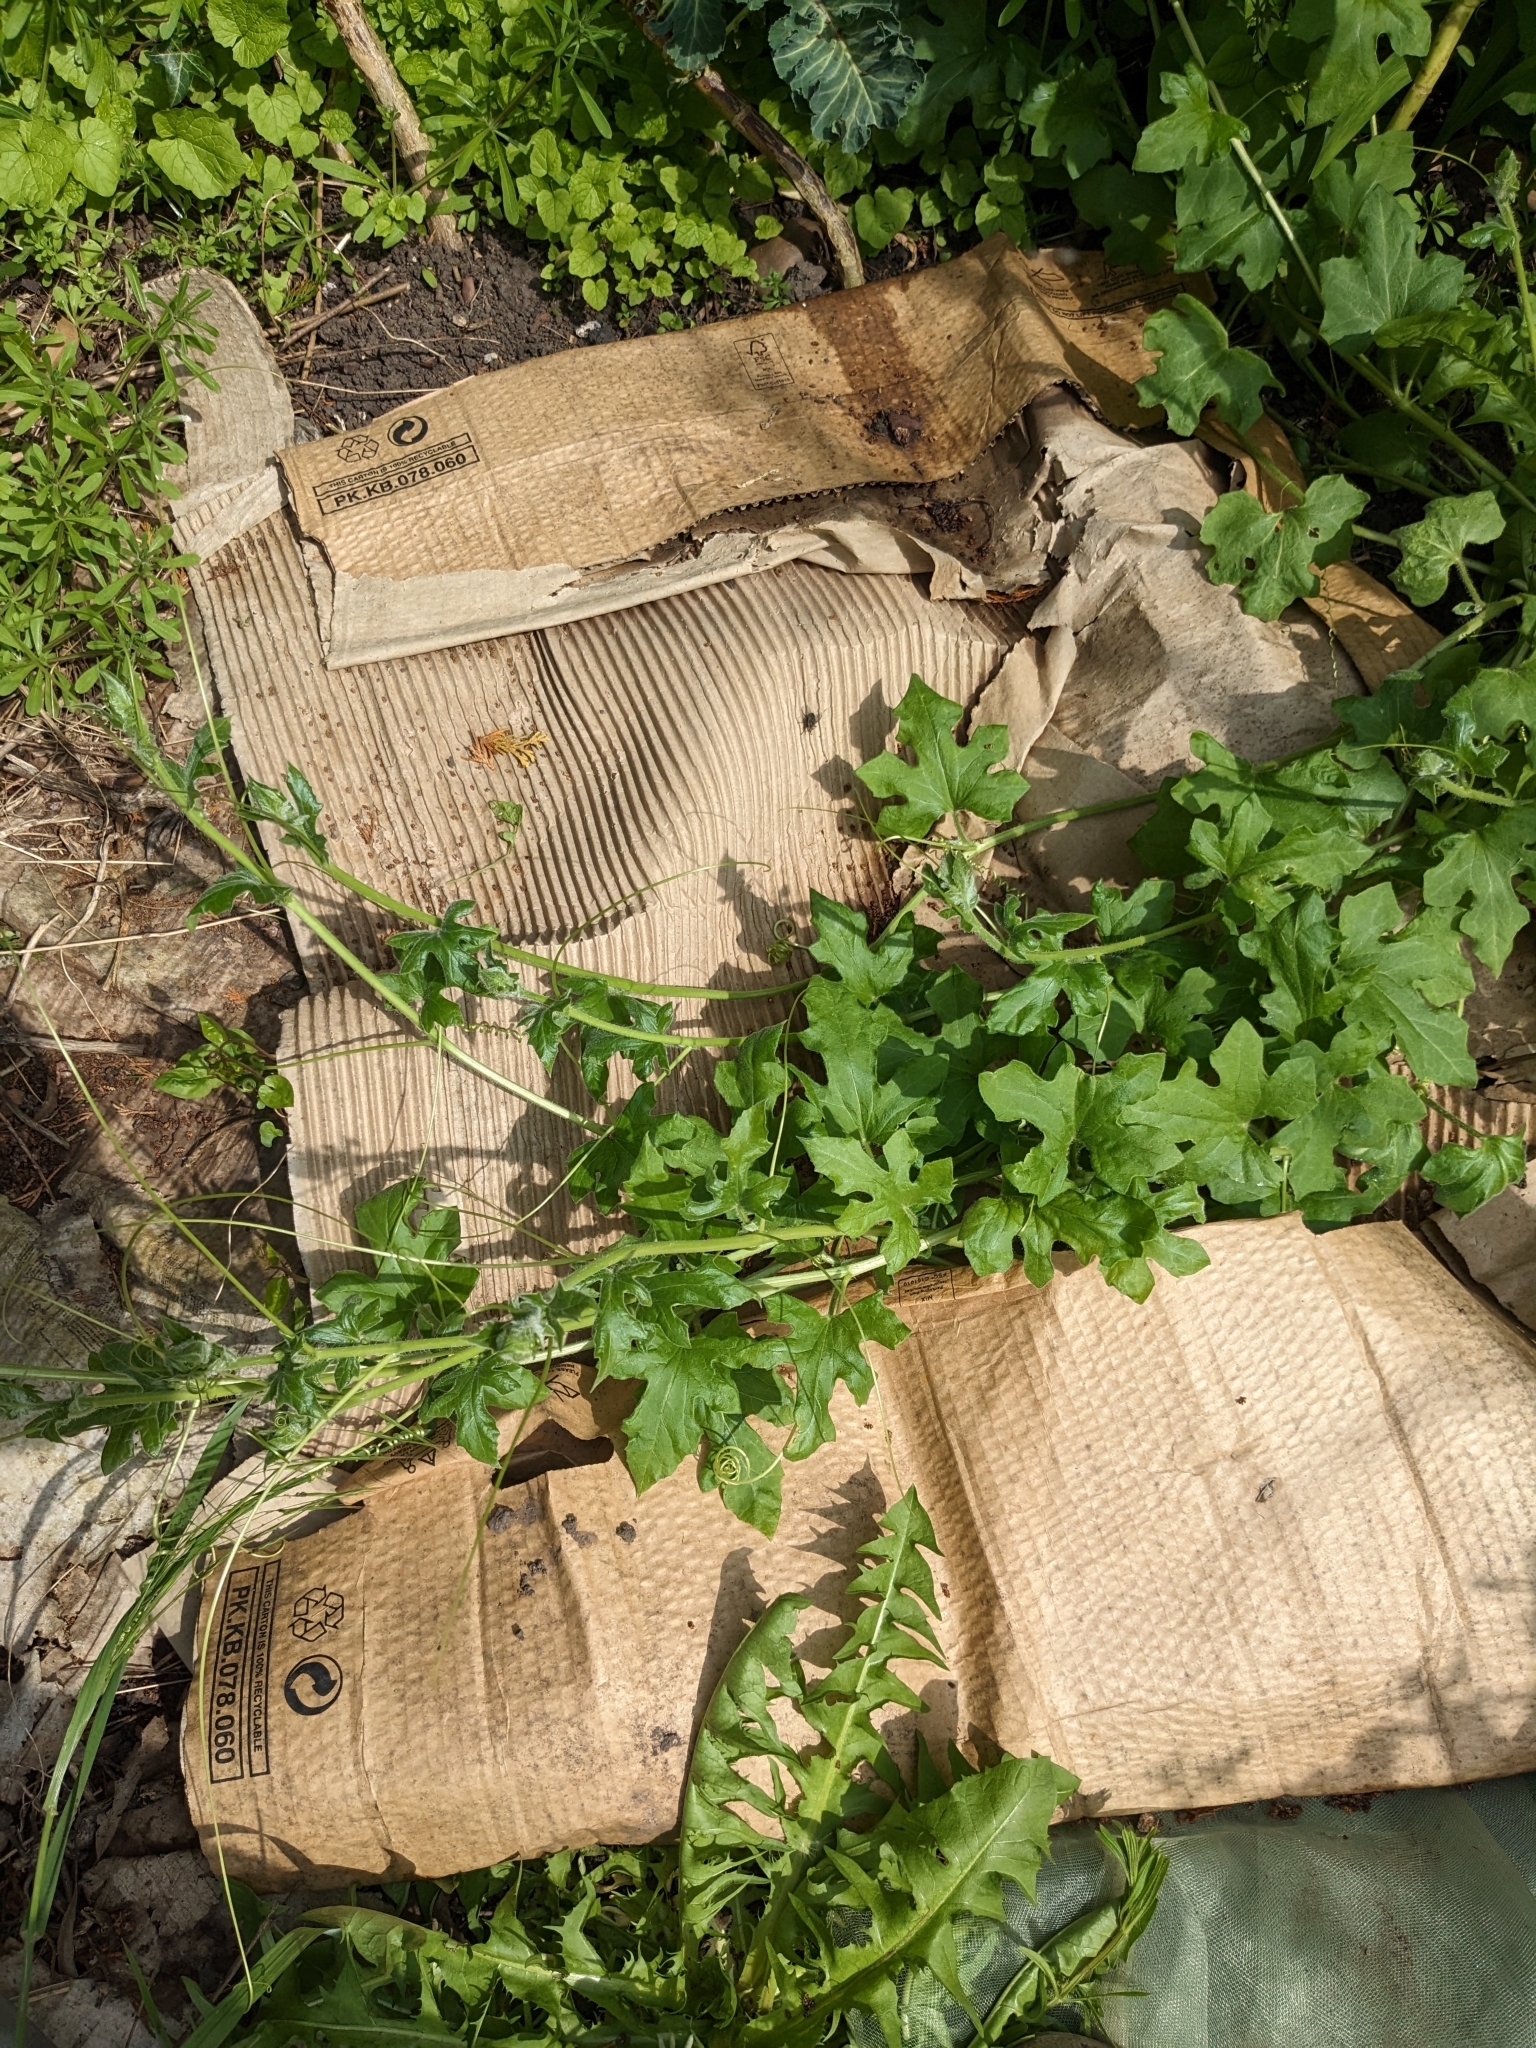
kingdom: Plantae
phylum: Tracheophyta
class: Magnoliopsida
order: Cucurbitales
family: Cucurbitaceae
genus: Bryonia
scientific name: Bryonia dioica
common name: White bryony
